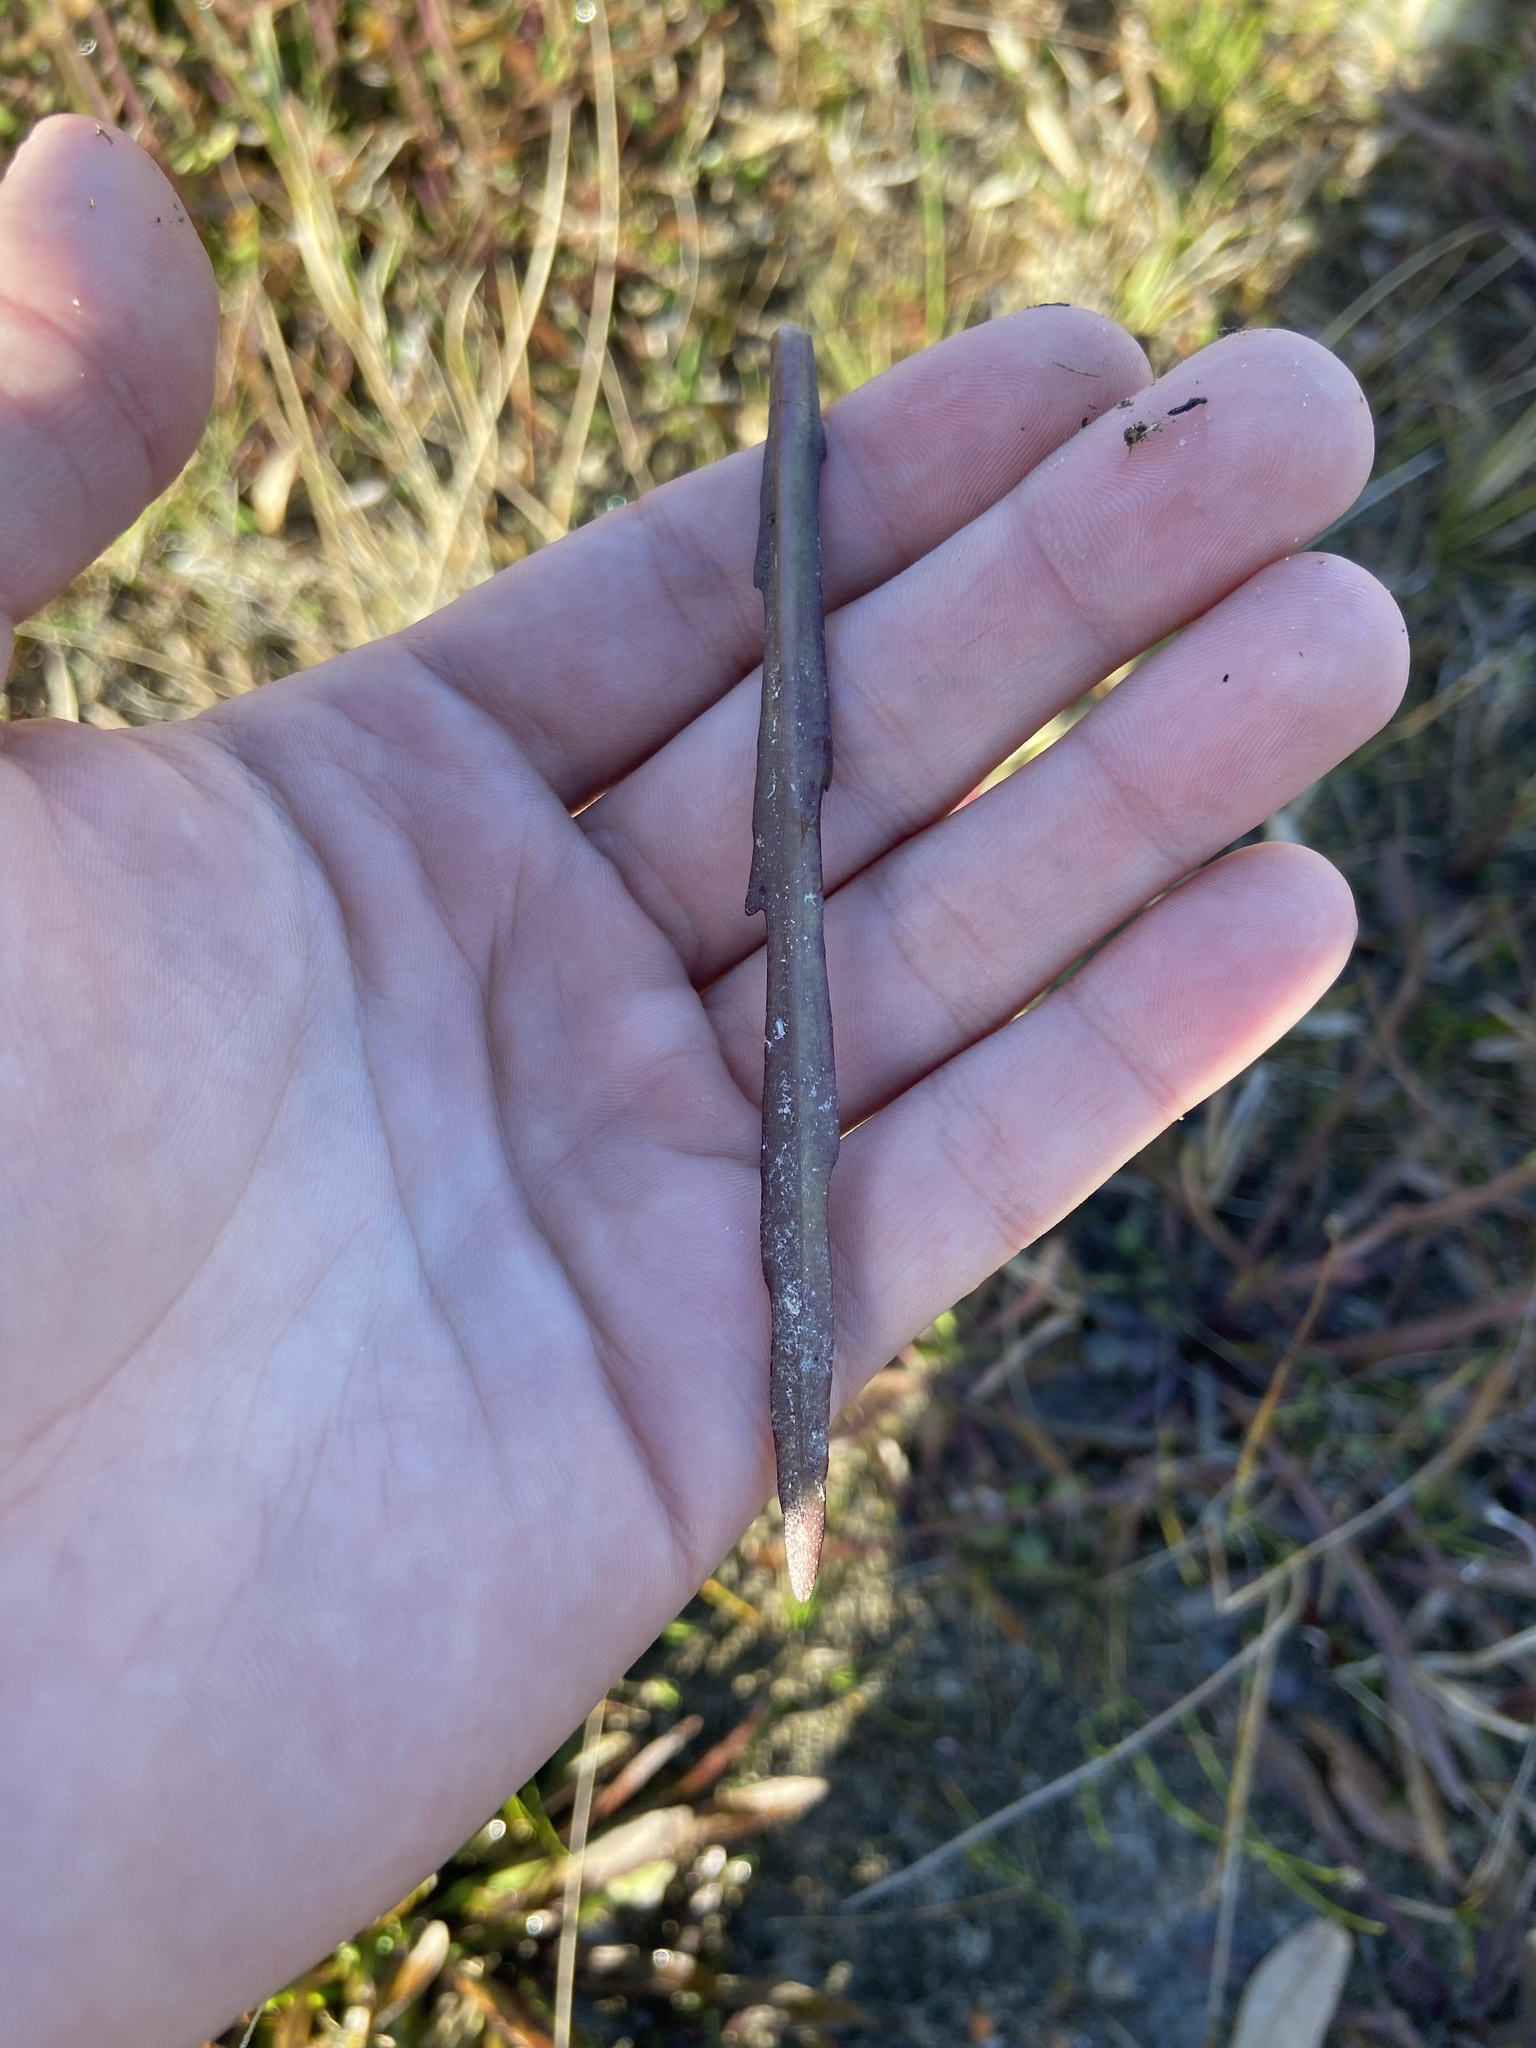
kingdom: Plantae
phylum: Tracheophyta
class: Magnoliopsida
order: Asterales
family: Asteraceae
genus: Helenium
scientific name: Helenium pinnatifidum
